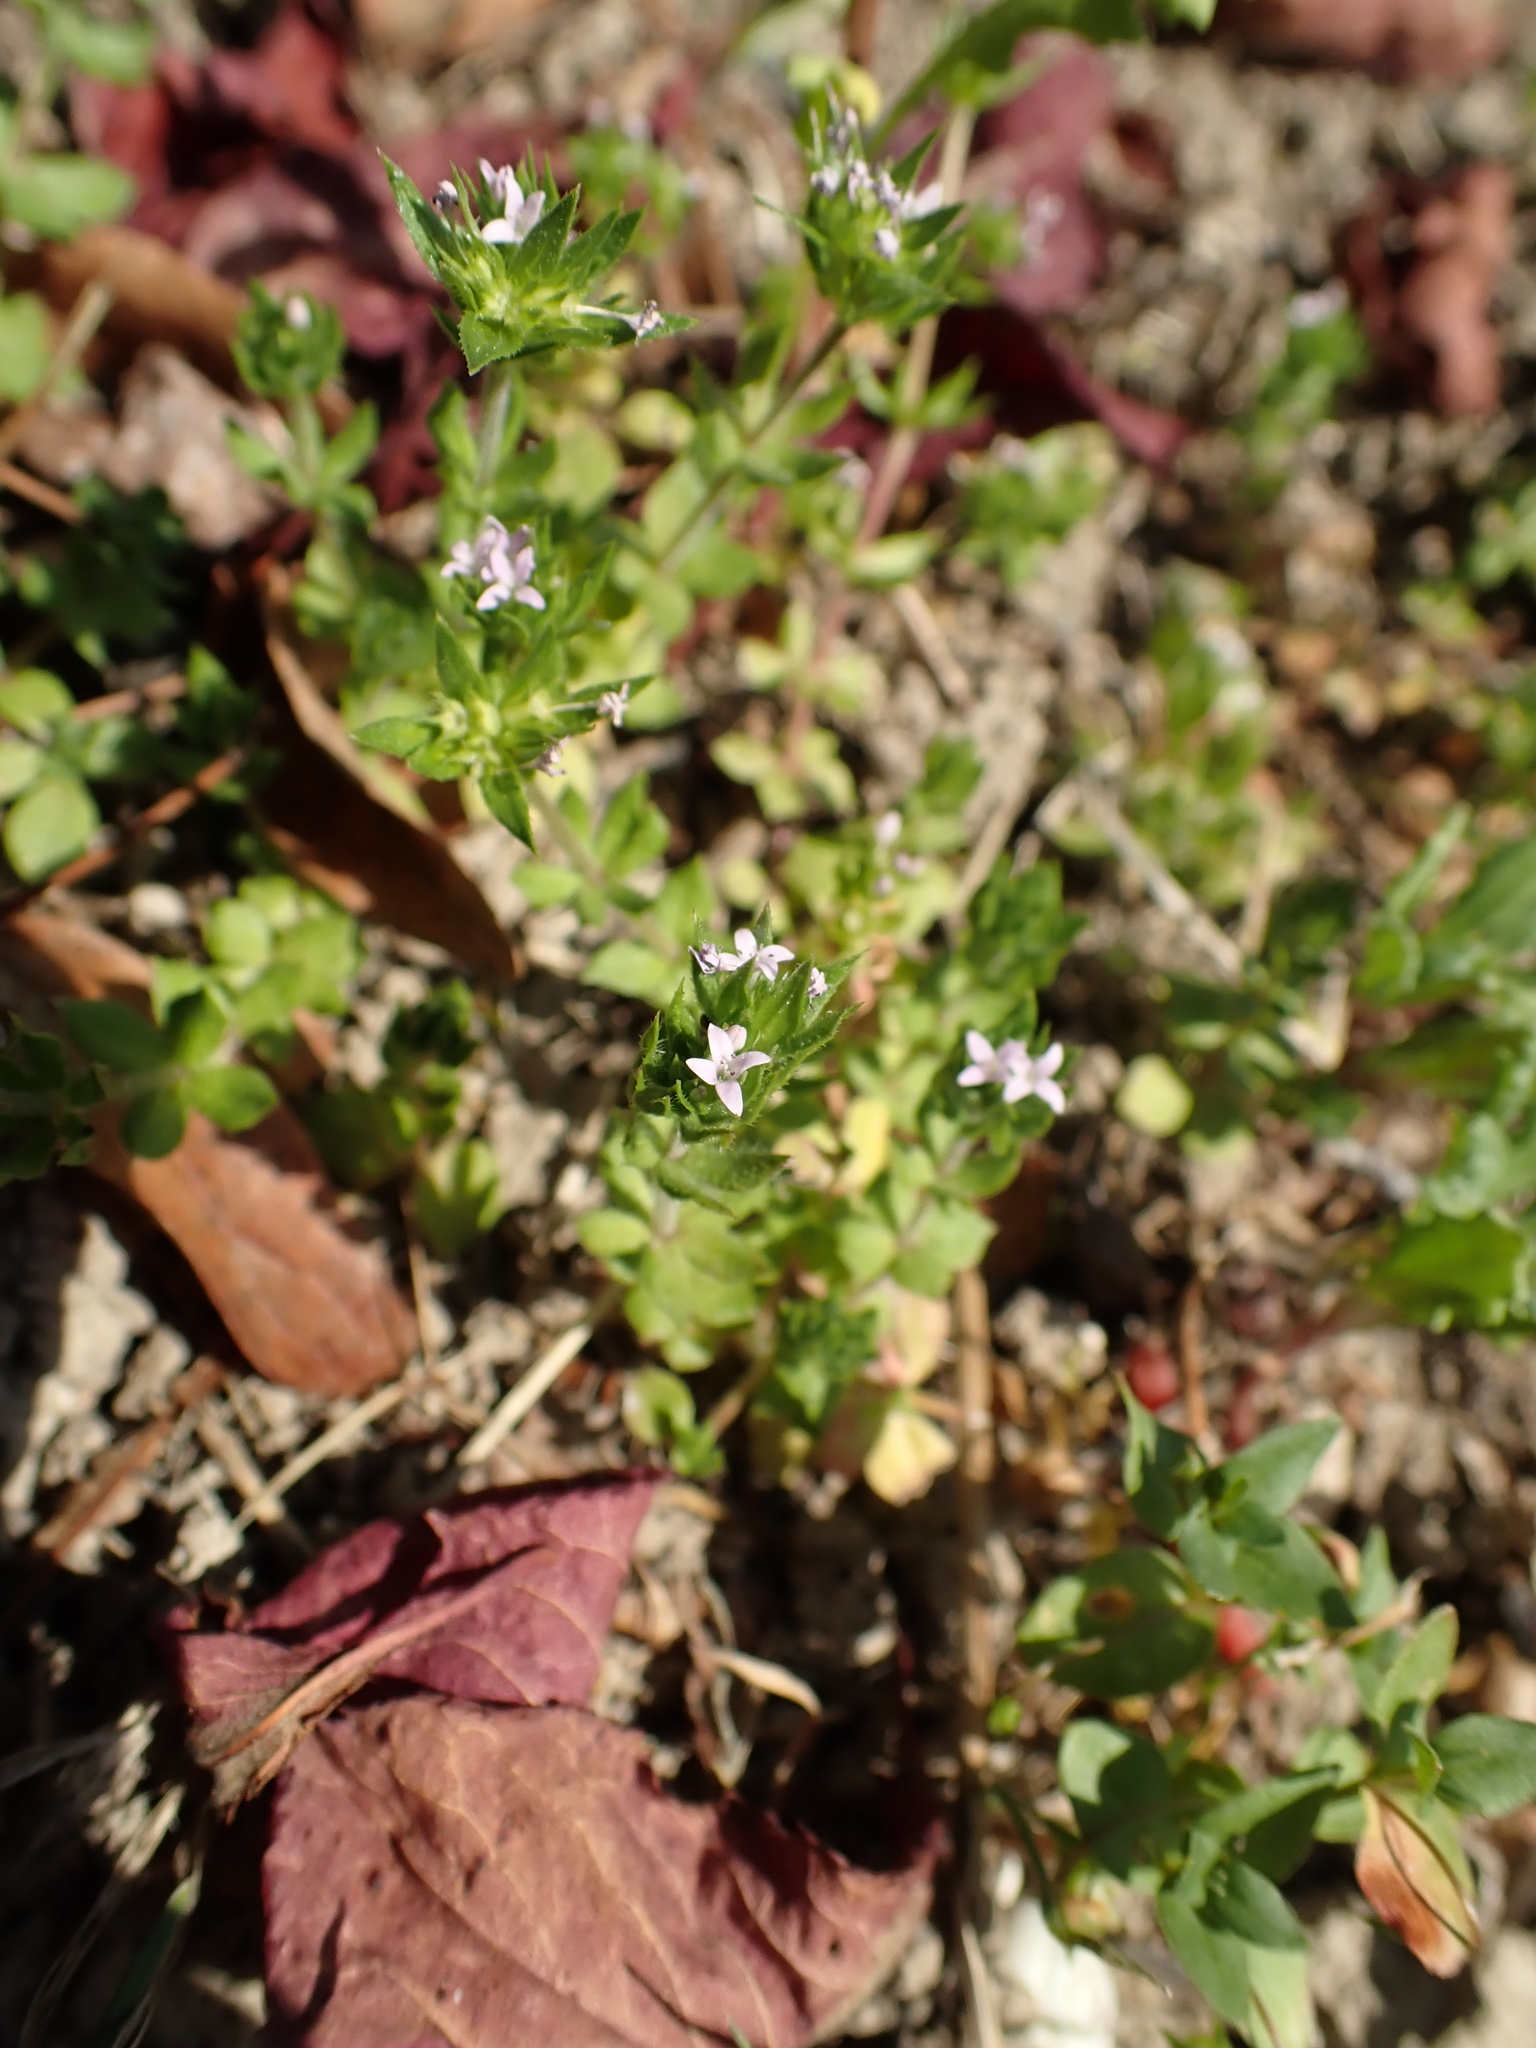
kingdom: Plantae
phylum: Tracheophyta
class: Magnoliopsida
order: Gentianales
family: Rubiaceae
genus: Sherardia
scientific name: Sherardia arvensis
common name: Field madder
